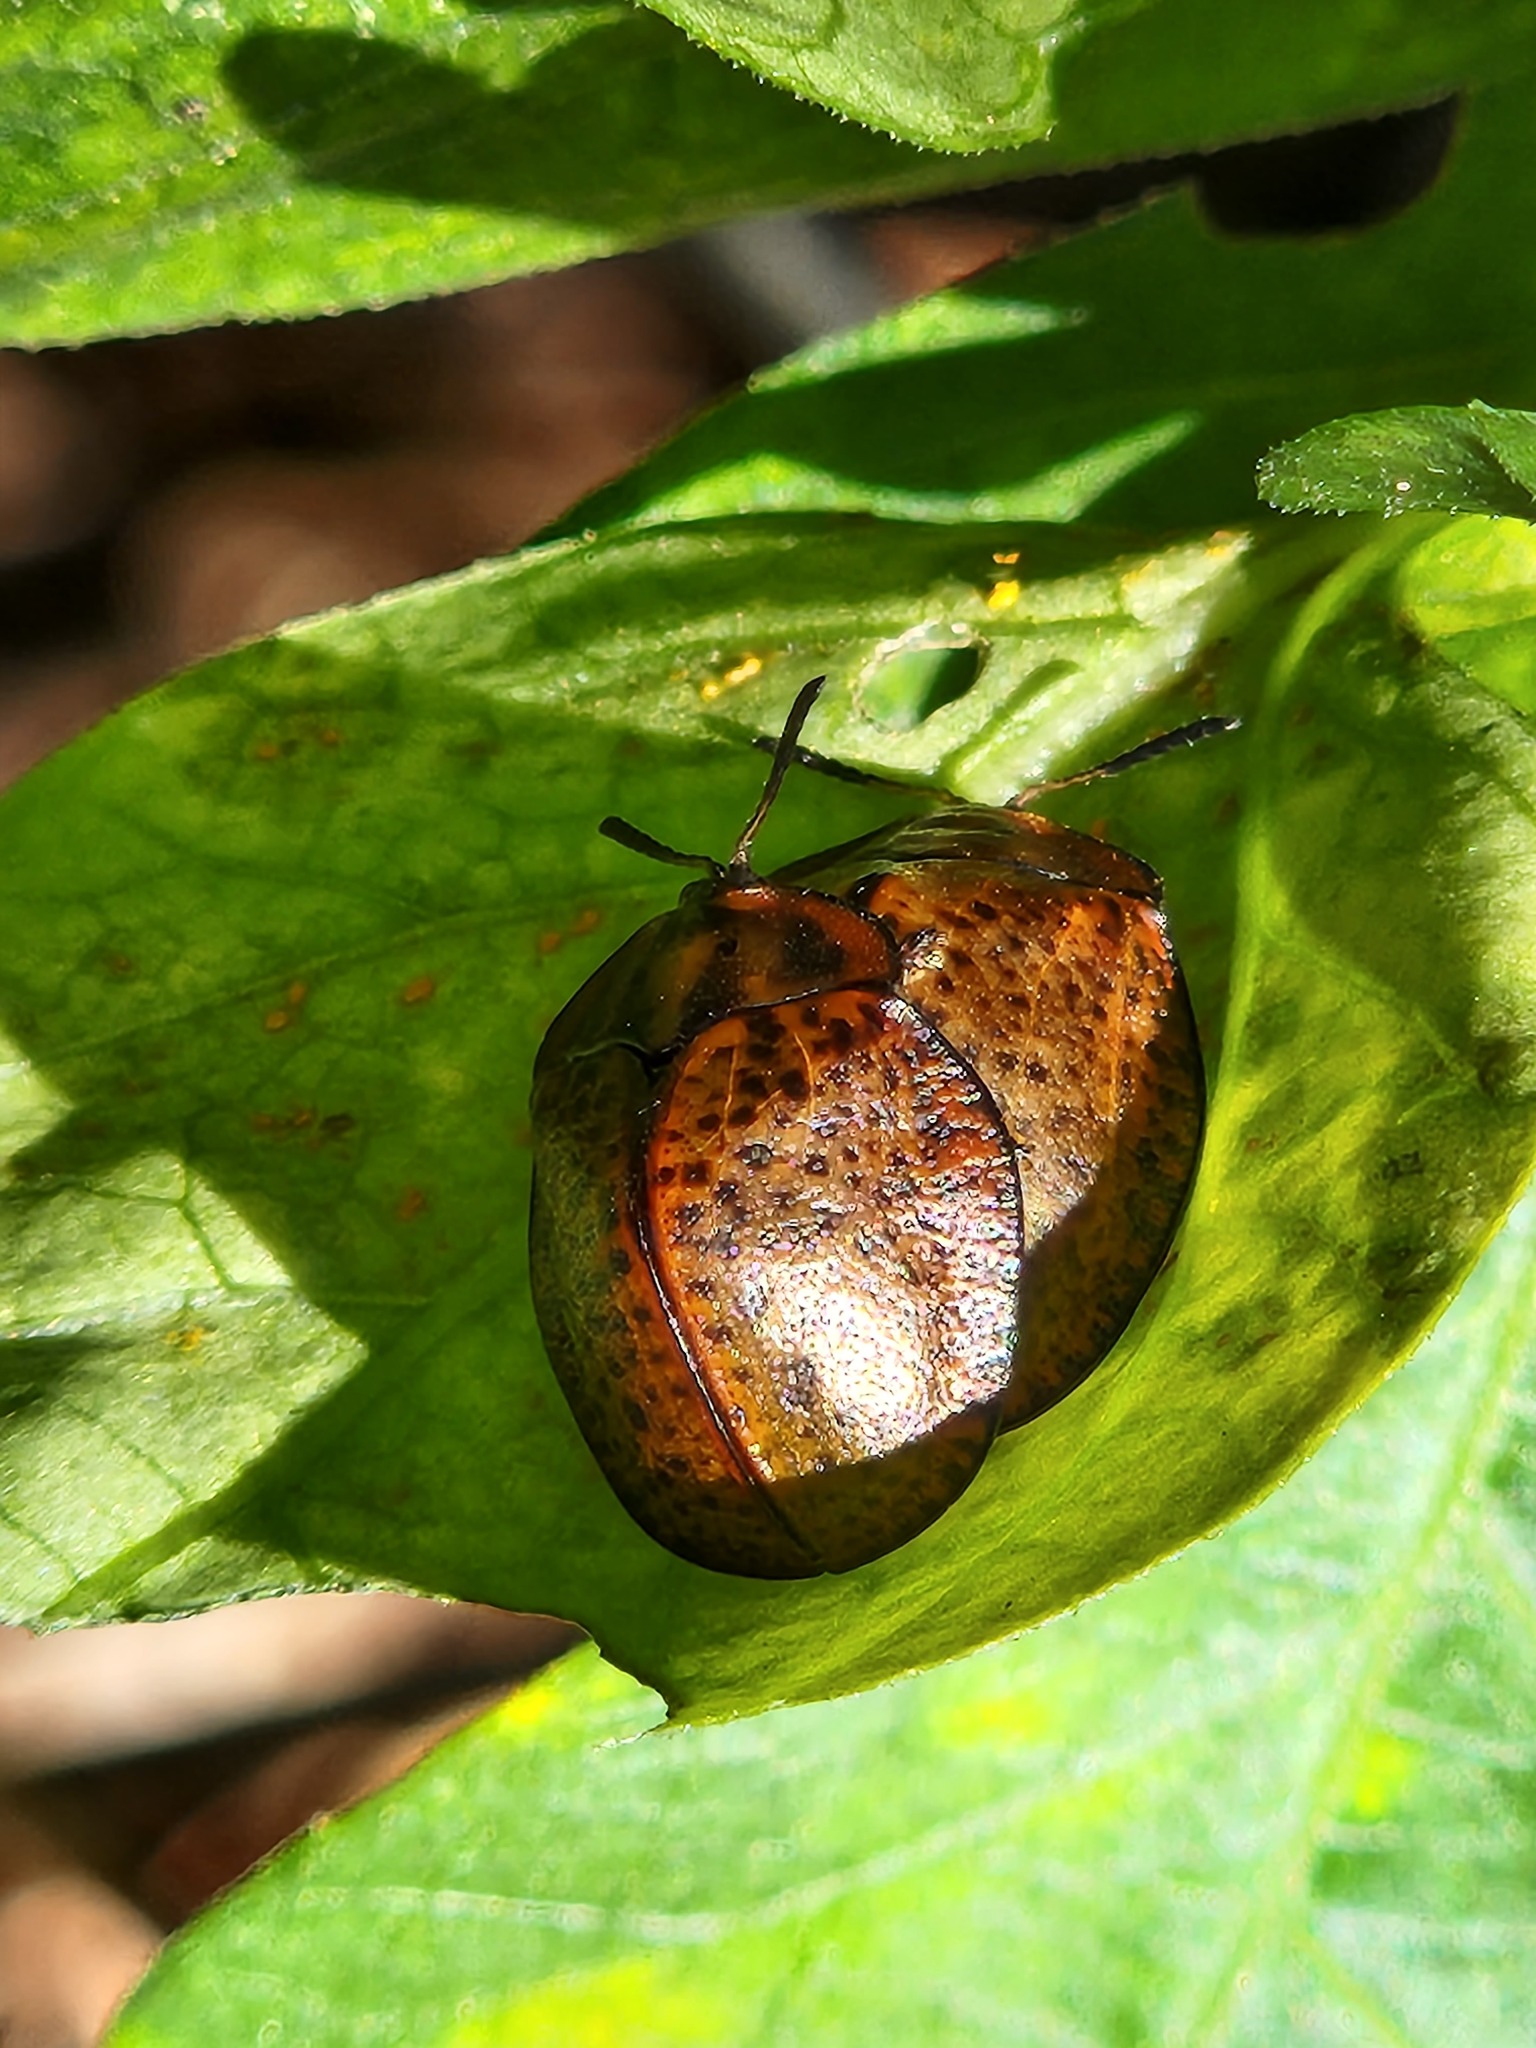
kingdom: Animalia
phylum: Arthropoda
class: Insecta
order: Coleoptera
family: Chrysomelidae
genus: Chelymorpha
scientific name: Chelymorpha inflata
